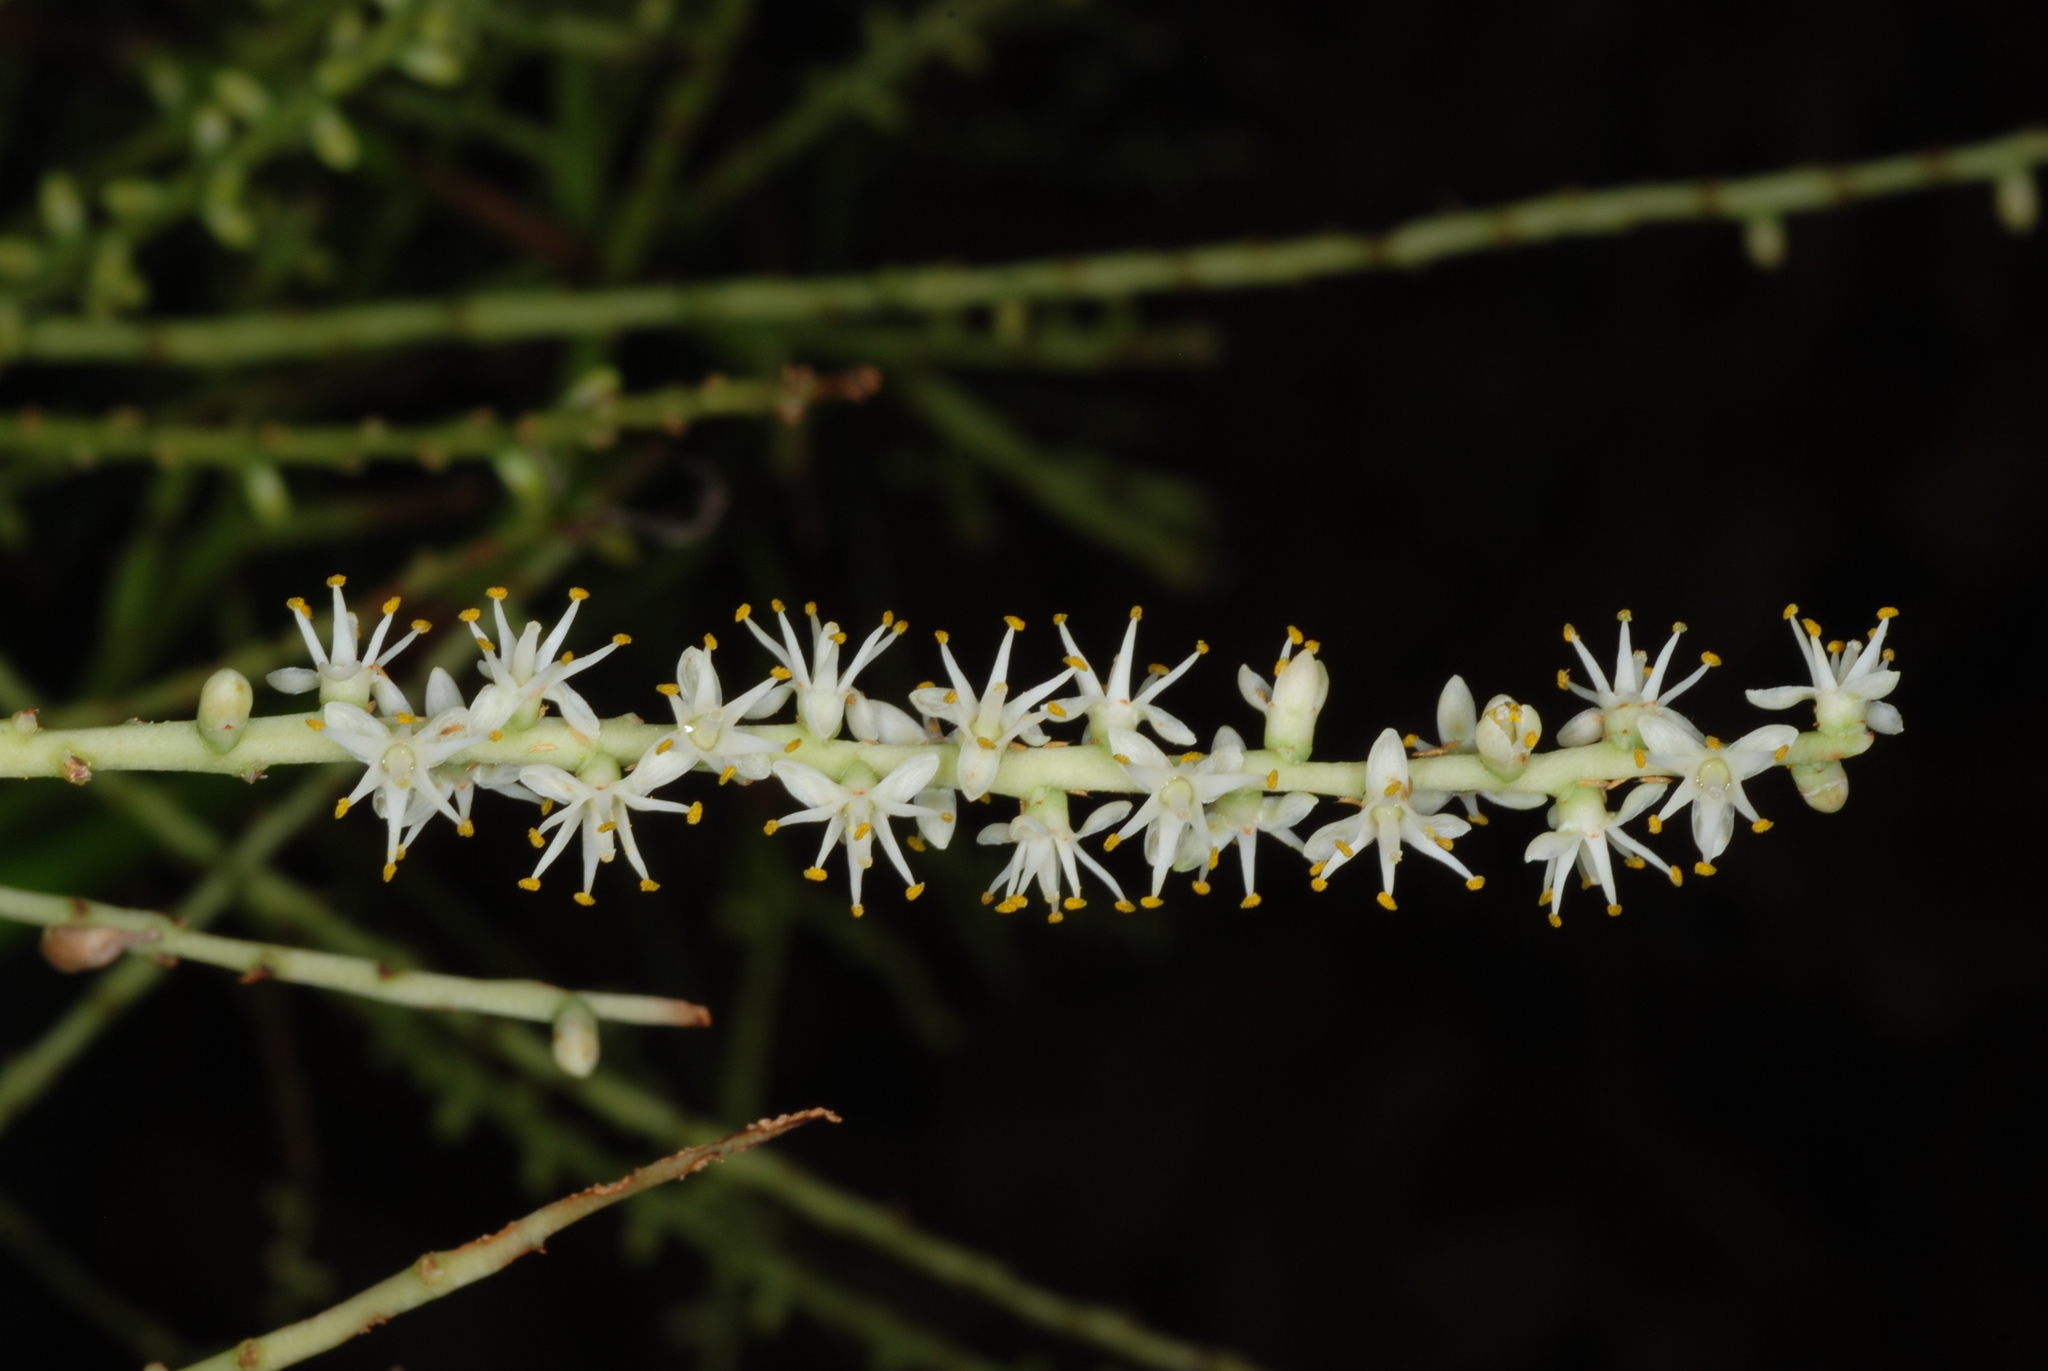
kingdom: Plantae
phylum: Tracheophyta
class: Liliopsida
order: Arecales
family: Arecaceae
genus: Sabal
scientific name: Sabal brazoriensis
